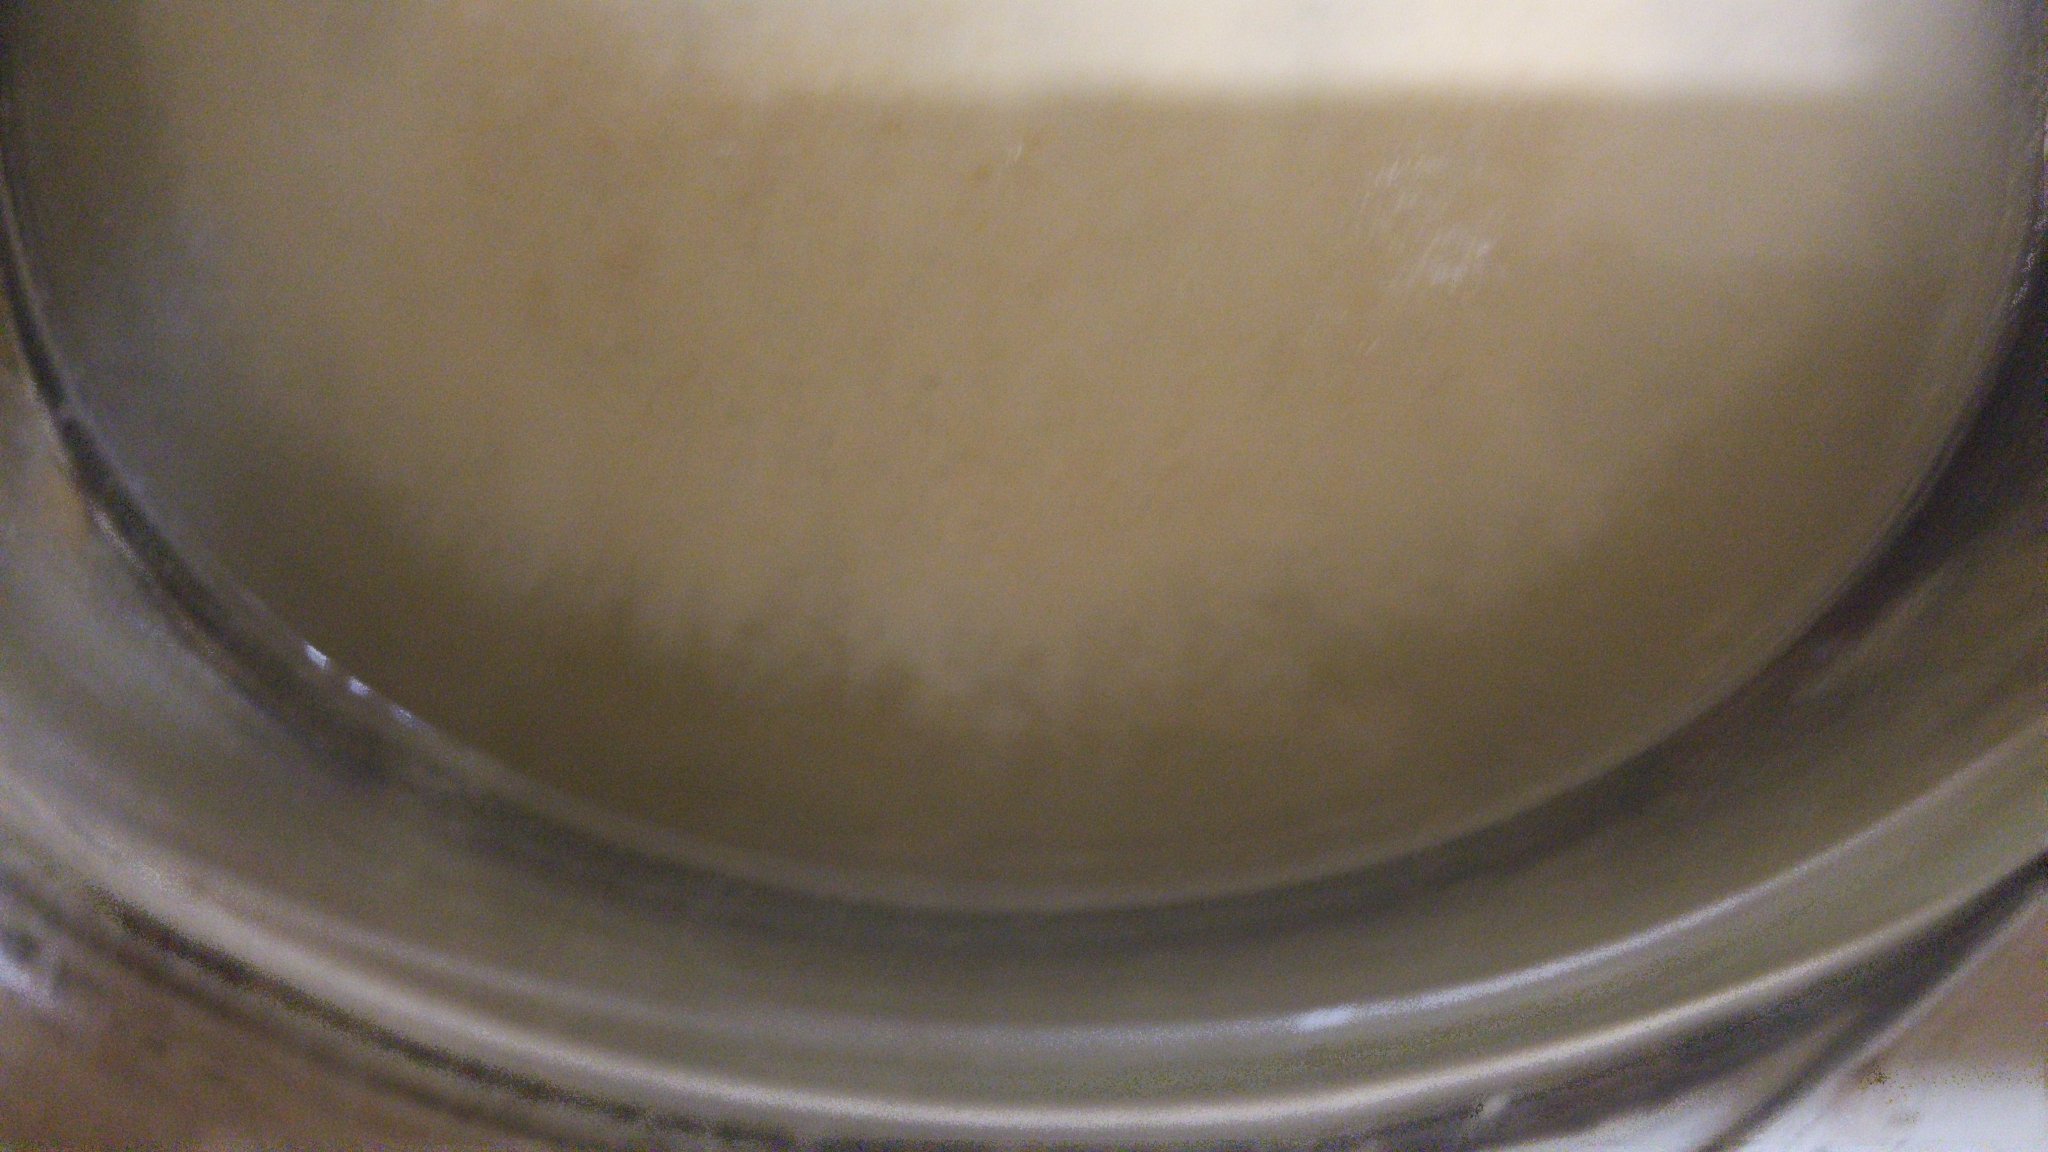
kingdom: Fungi
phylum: Ascomycota
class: Saccharomycetes
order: Saccharomycetales
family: Saccharomycetaceae
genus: Saccharomyces
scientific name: Saccharomyces cerevisiae
